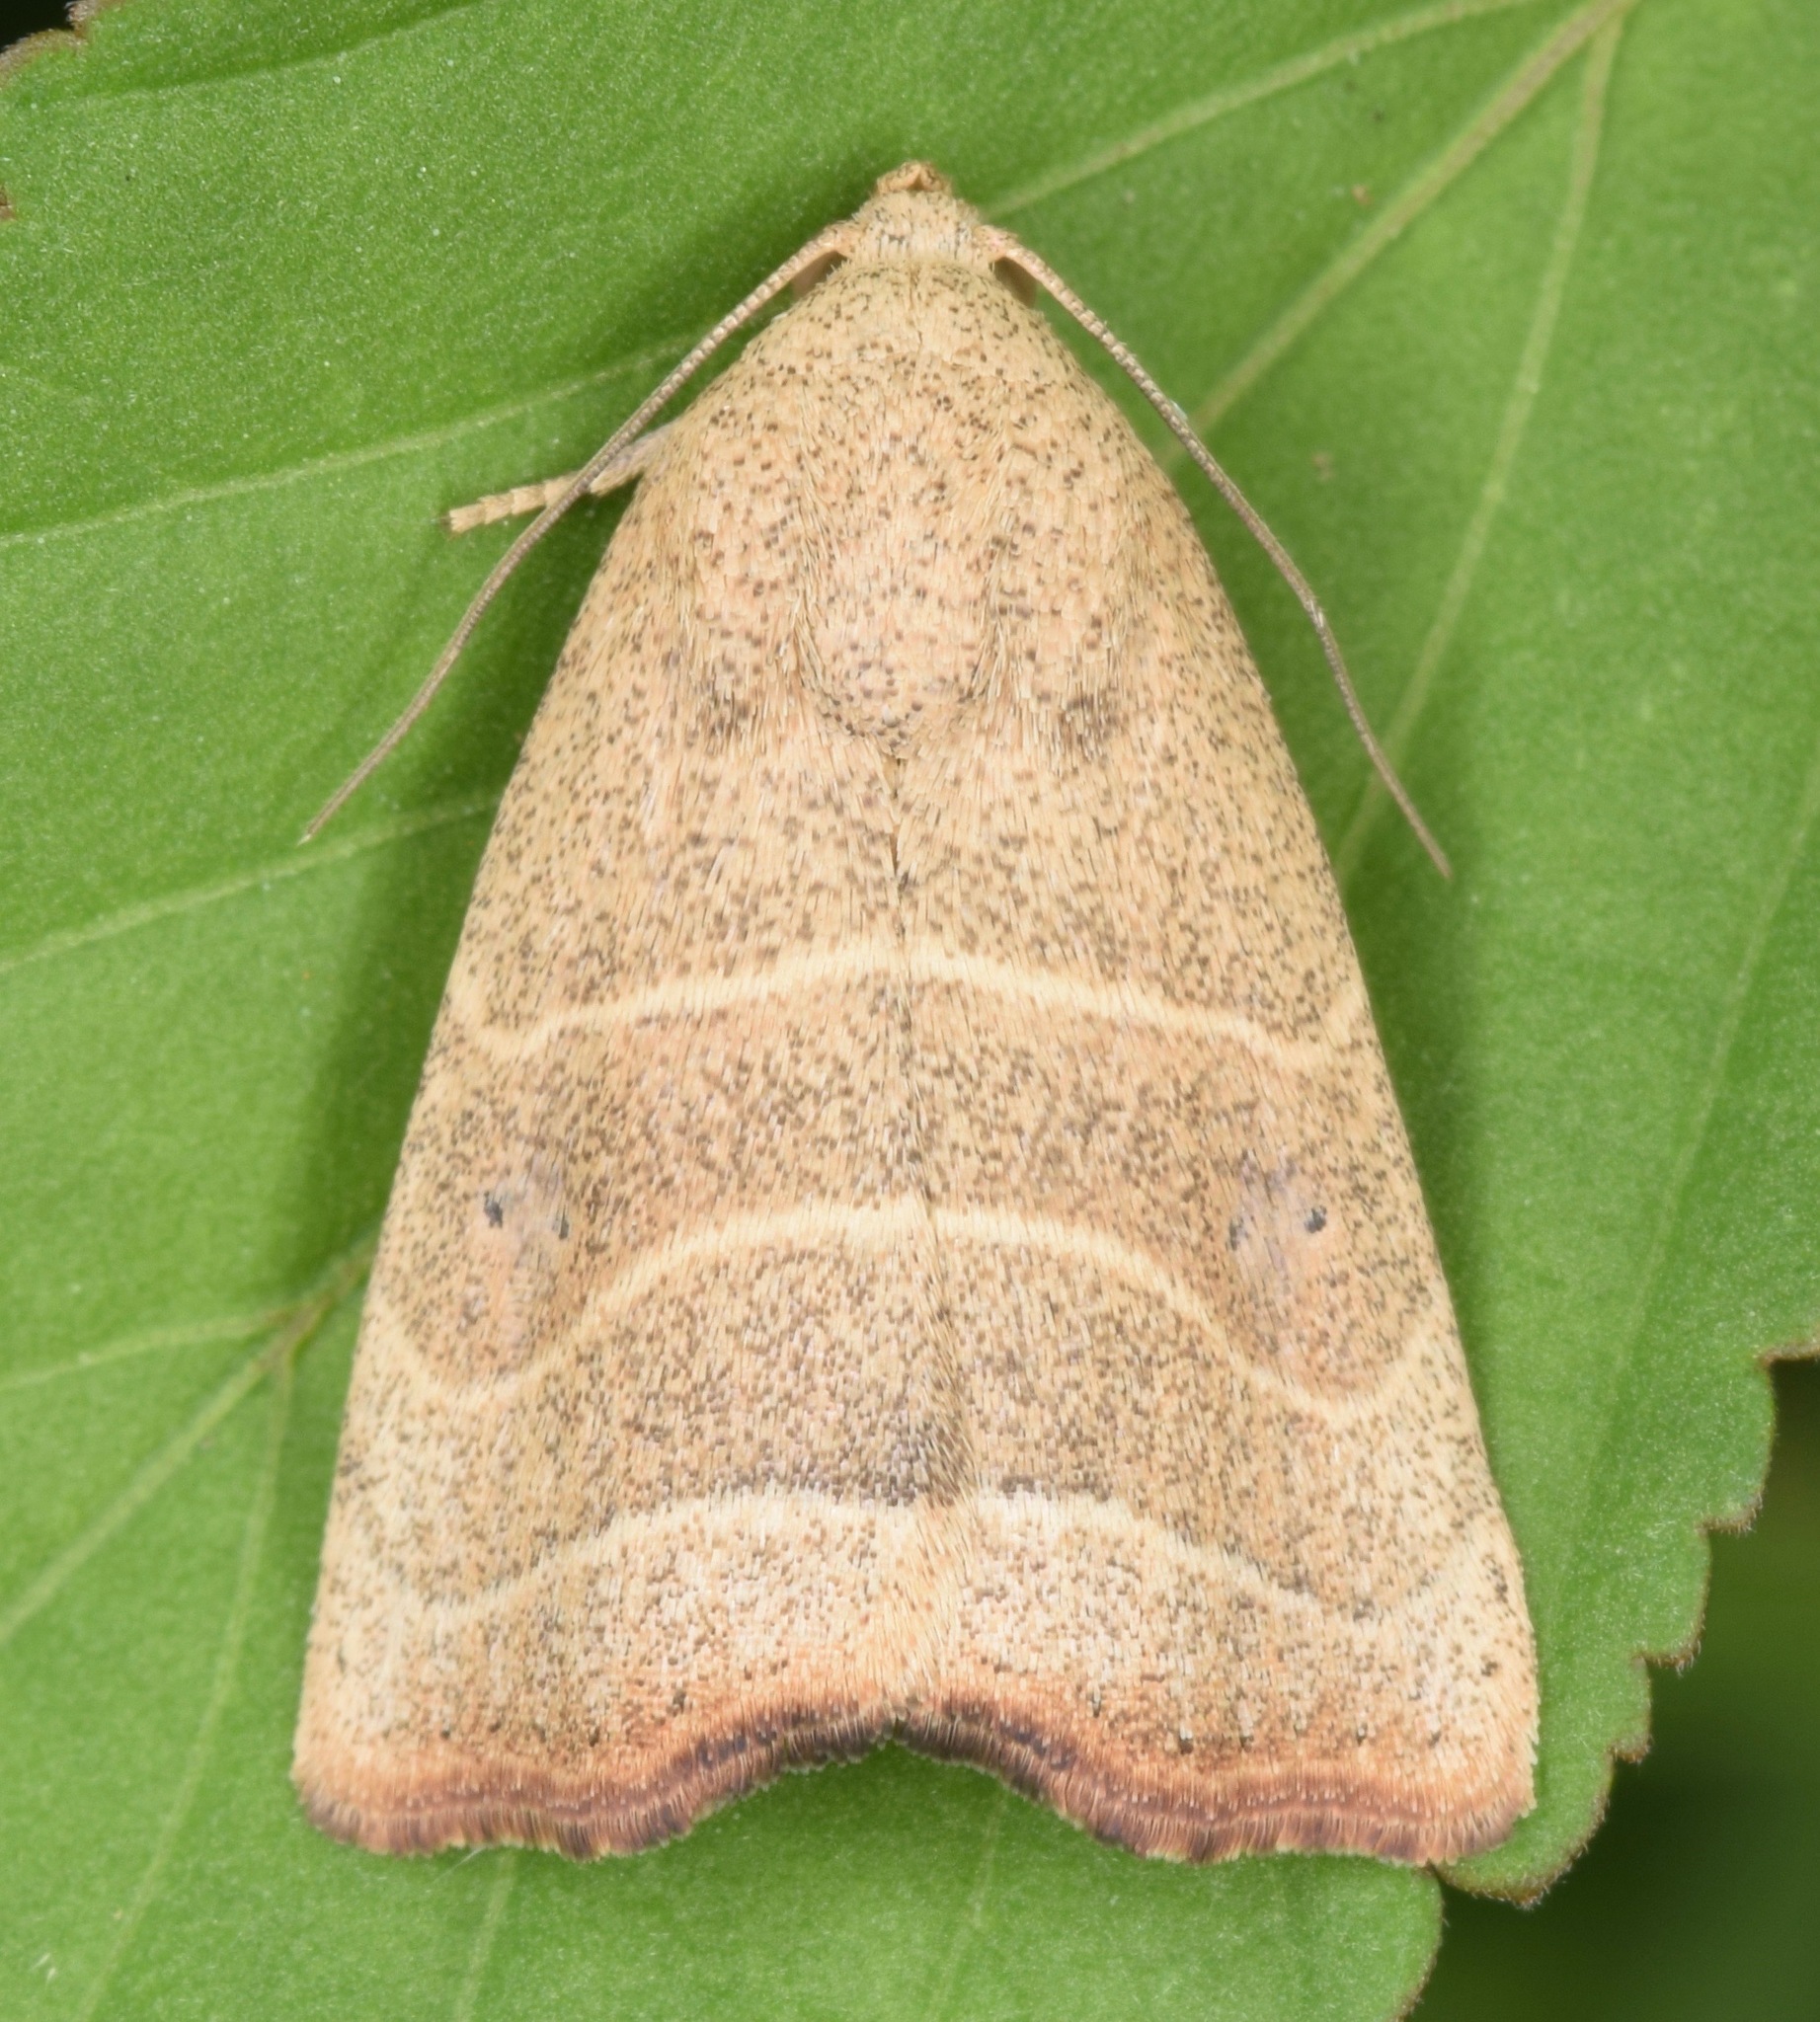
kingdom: Animalia
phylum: Arthropoda
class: Insecta
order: Lepidoptera
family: Noctuidae
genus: Bagisara
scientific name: Bagisara repanda
